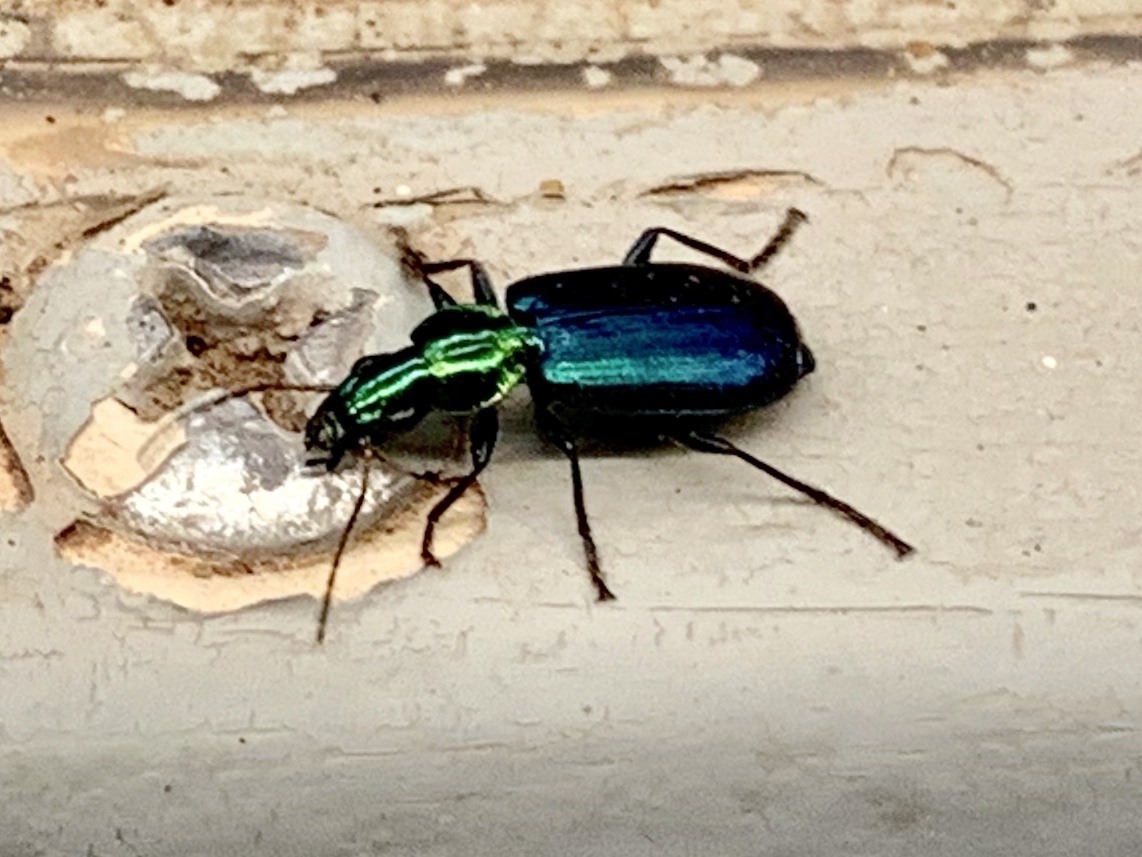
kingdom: Animalia
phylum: Arthropoda
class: Insecta
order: Coleoptera
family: Carabidae
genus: Philophuga
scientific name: Philophuga viridicollis
